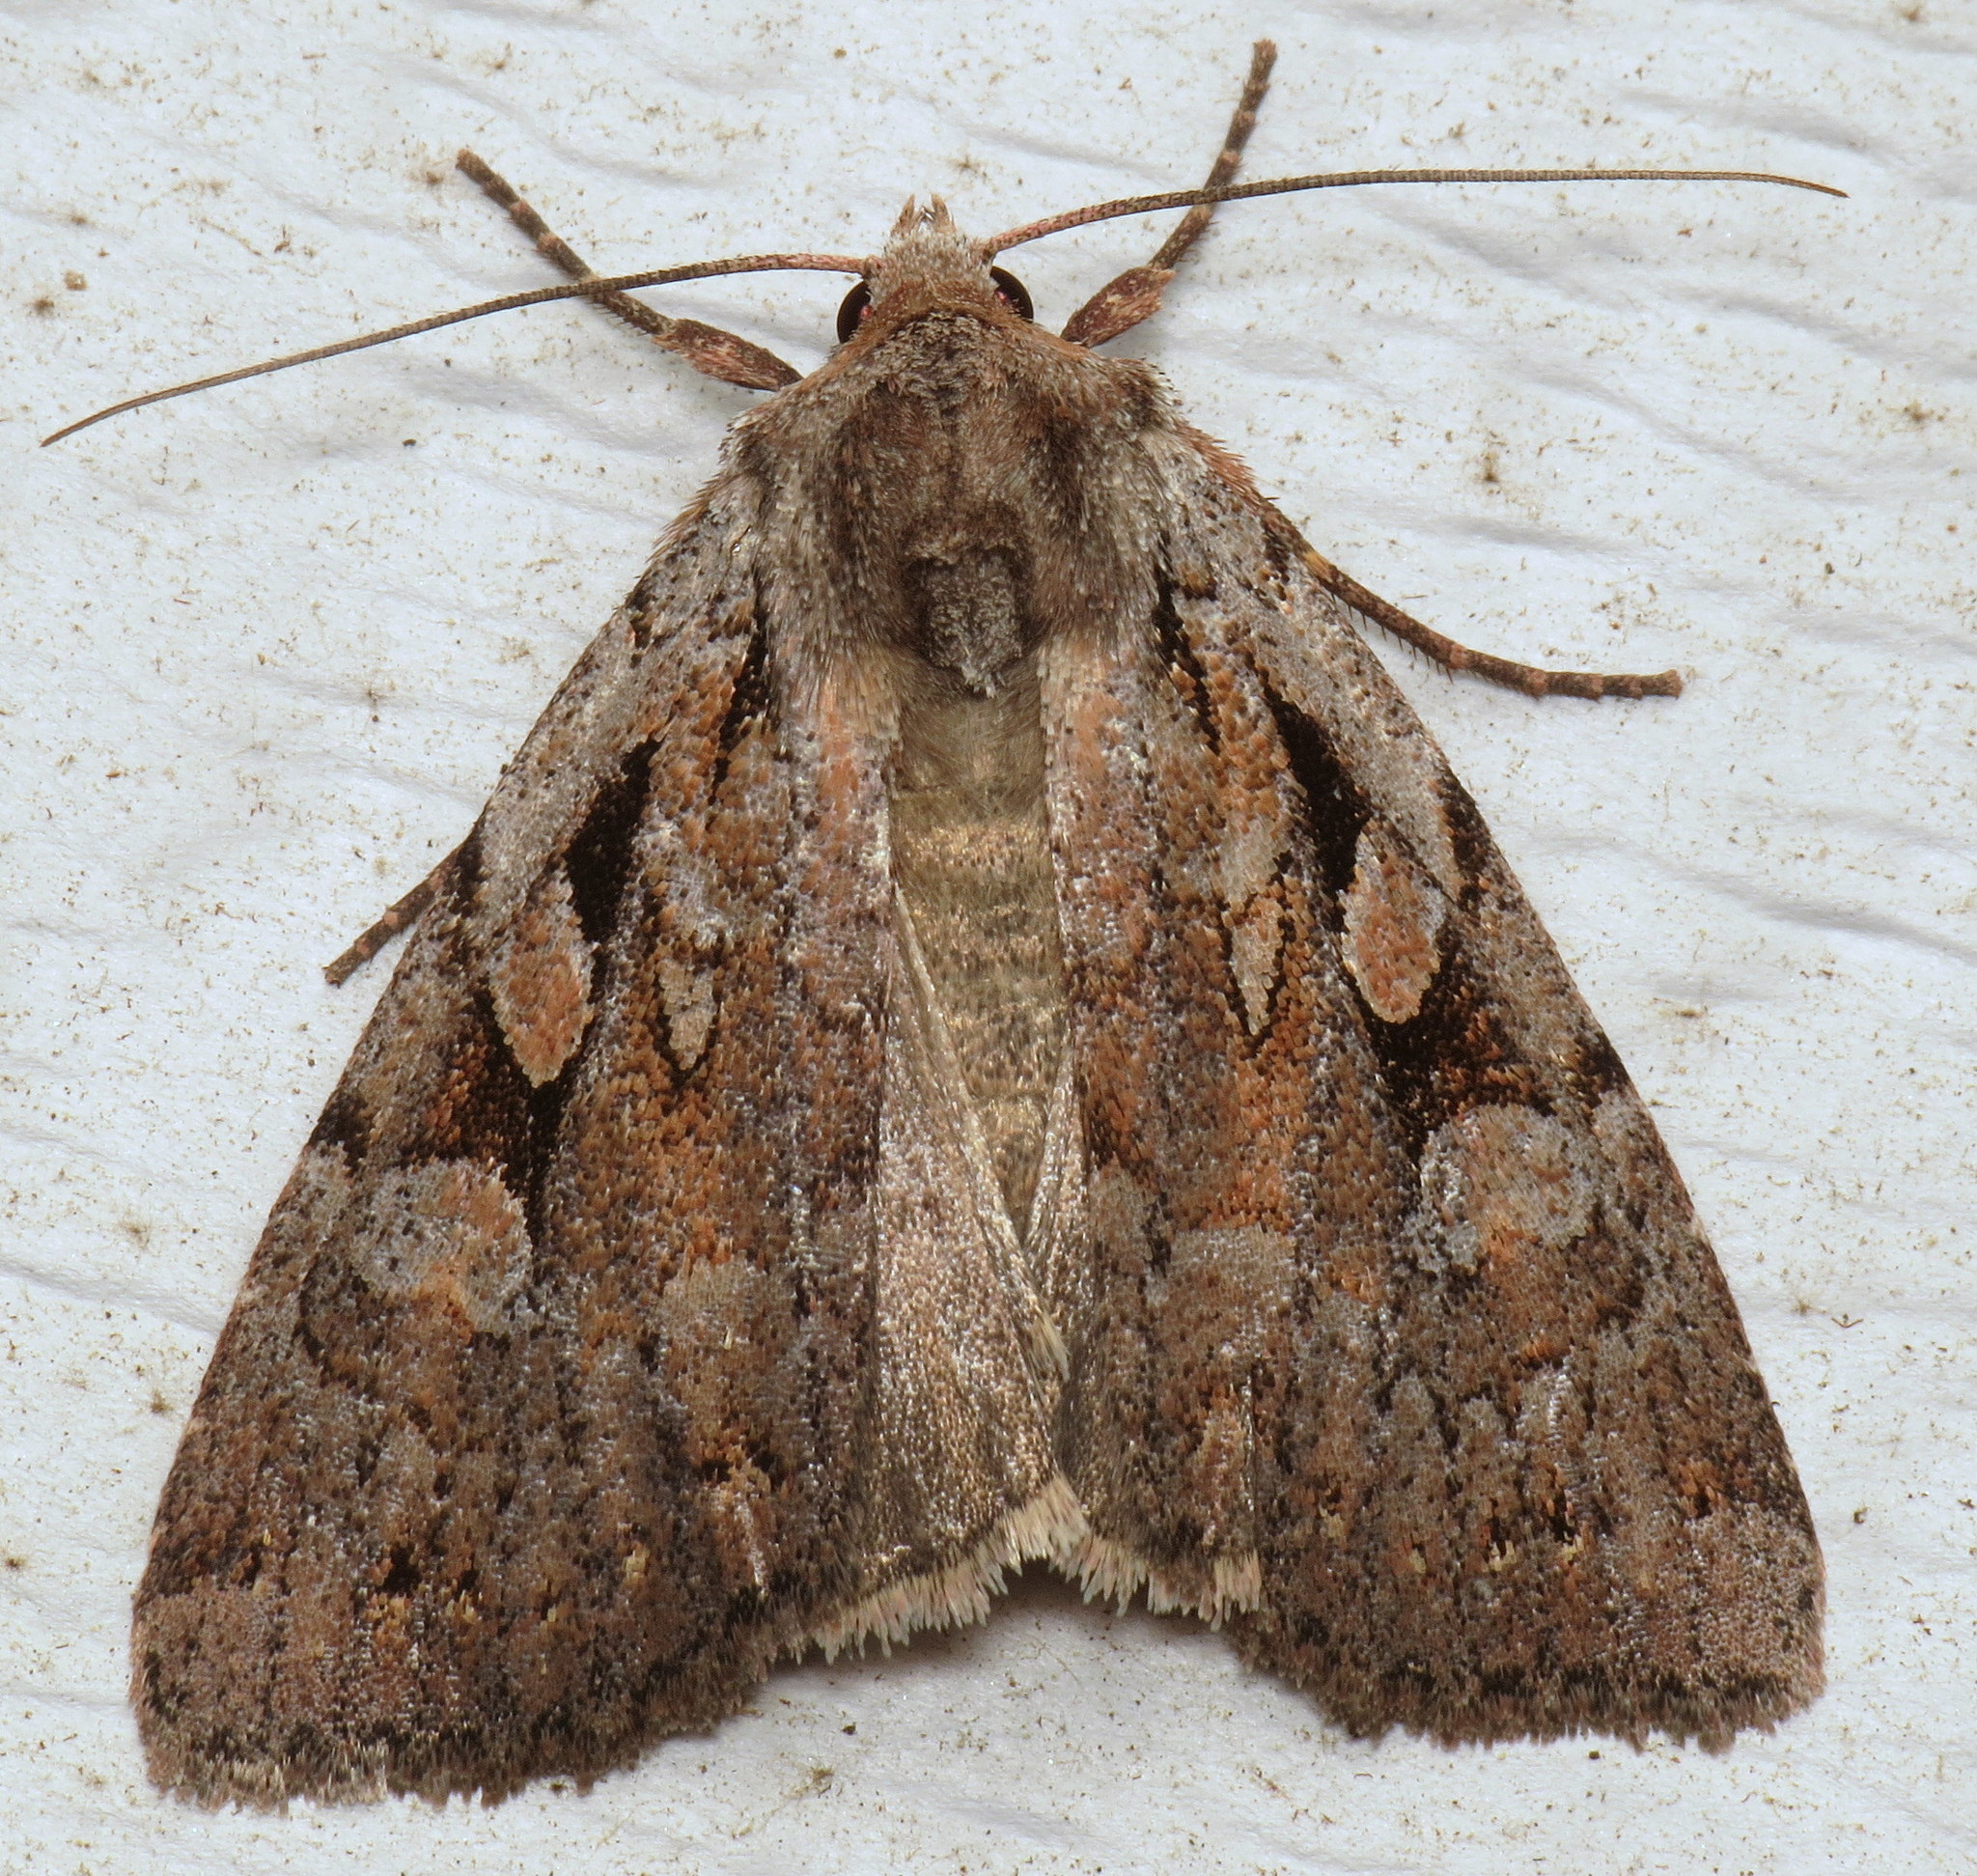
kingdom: Animalia
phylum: Arthropoda
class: Insecta
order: Lepidoptera
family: Noctuidae
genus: Xestia
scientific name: Xestia badicollis
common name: Northern variable dart
